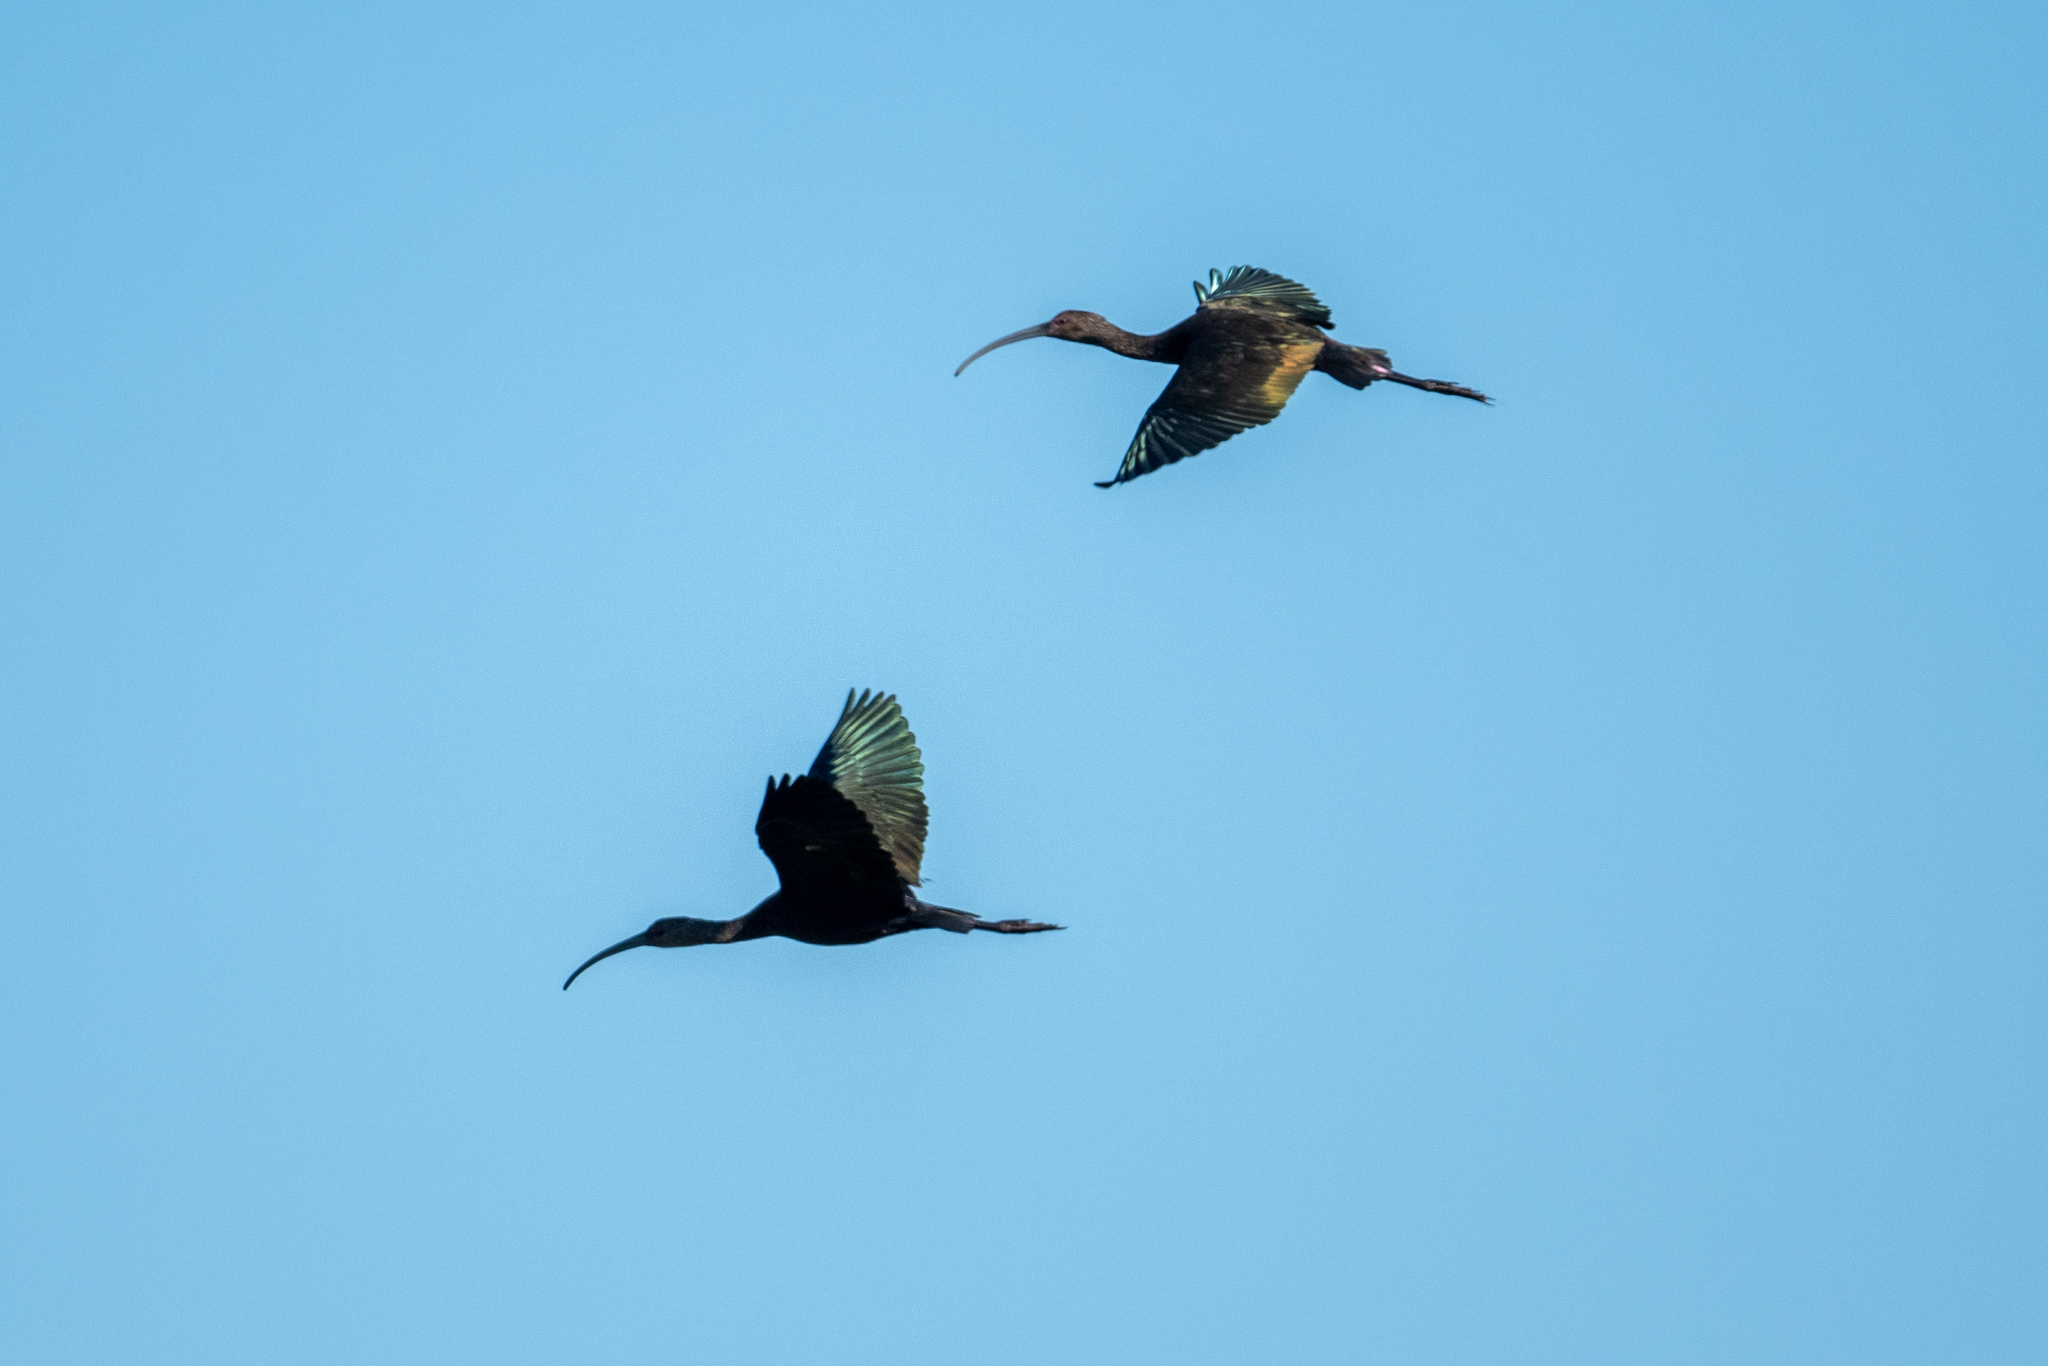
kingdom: Animalia
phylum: Chordata
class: Aves
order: Pelecaniformes
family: Threskiornithidae
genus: Plegadis
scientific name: Plegadis chihi
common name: White-faced ibis
